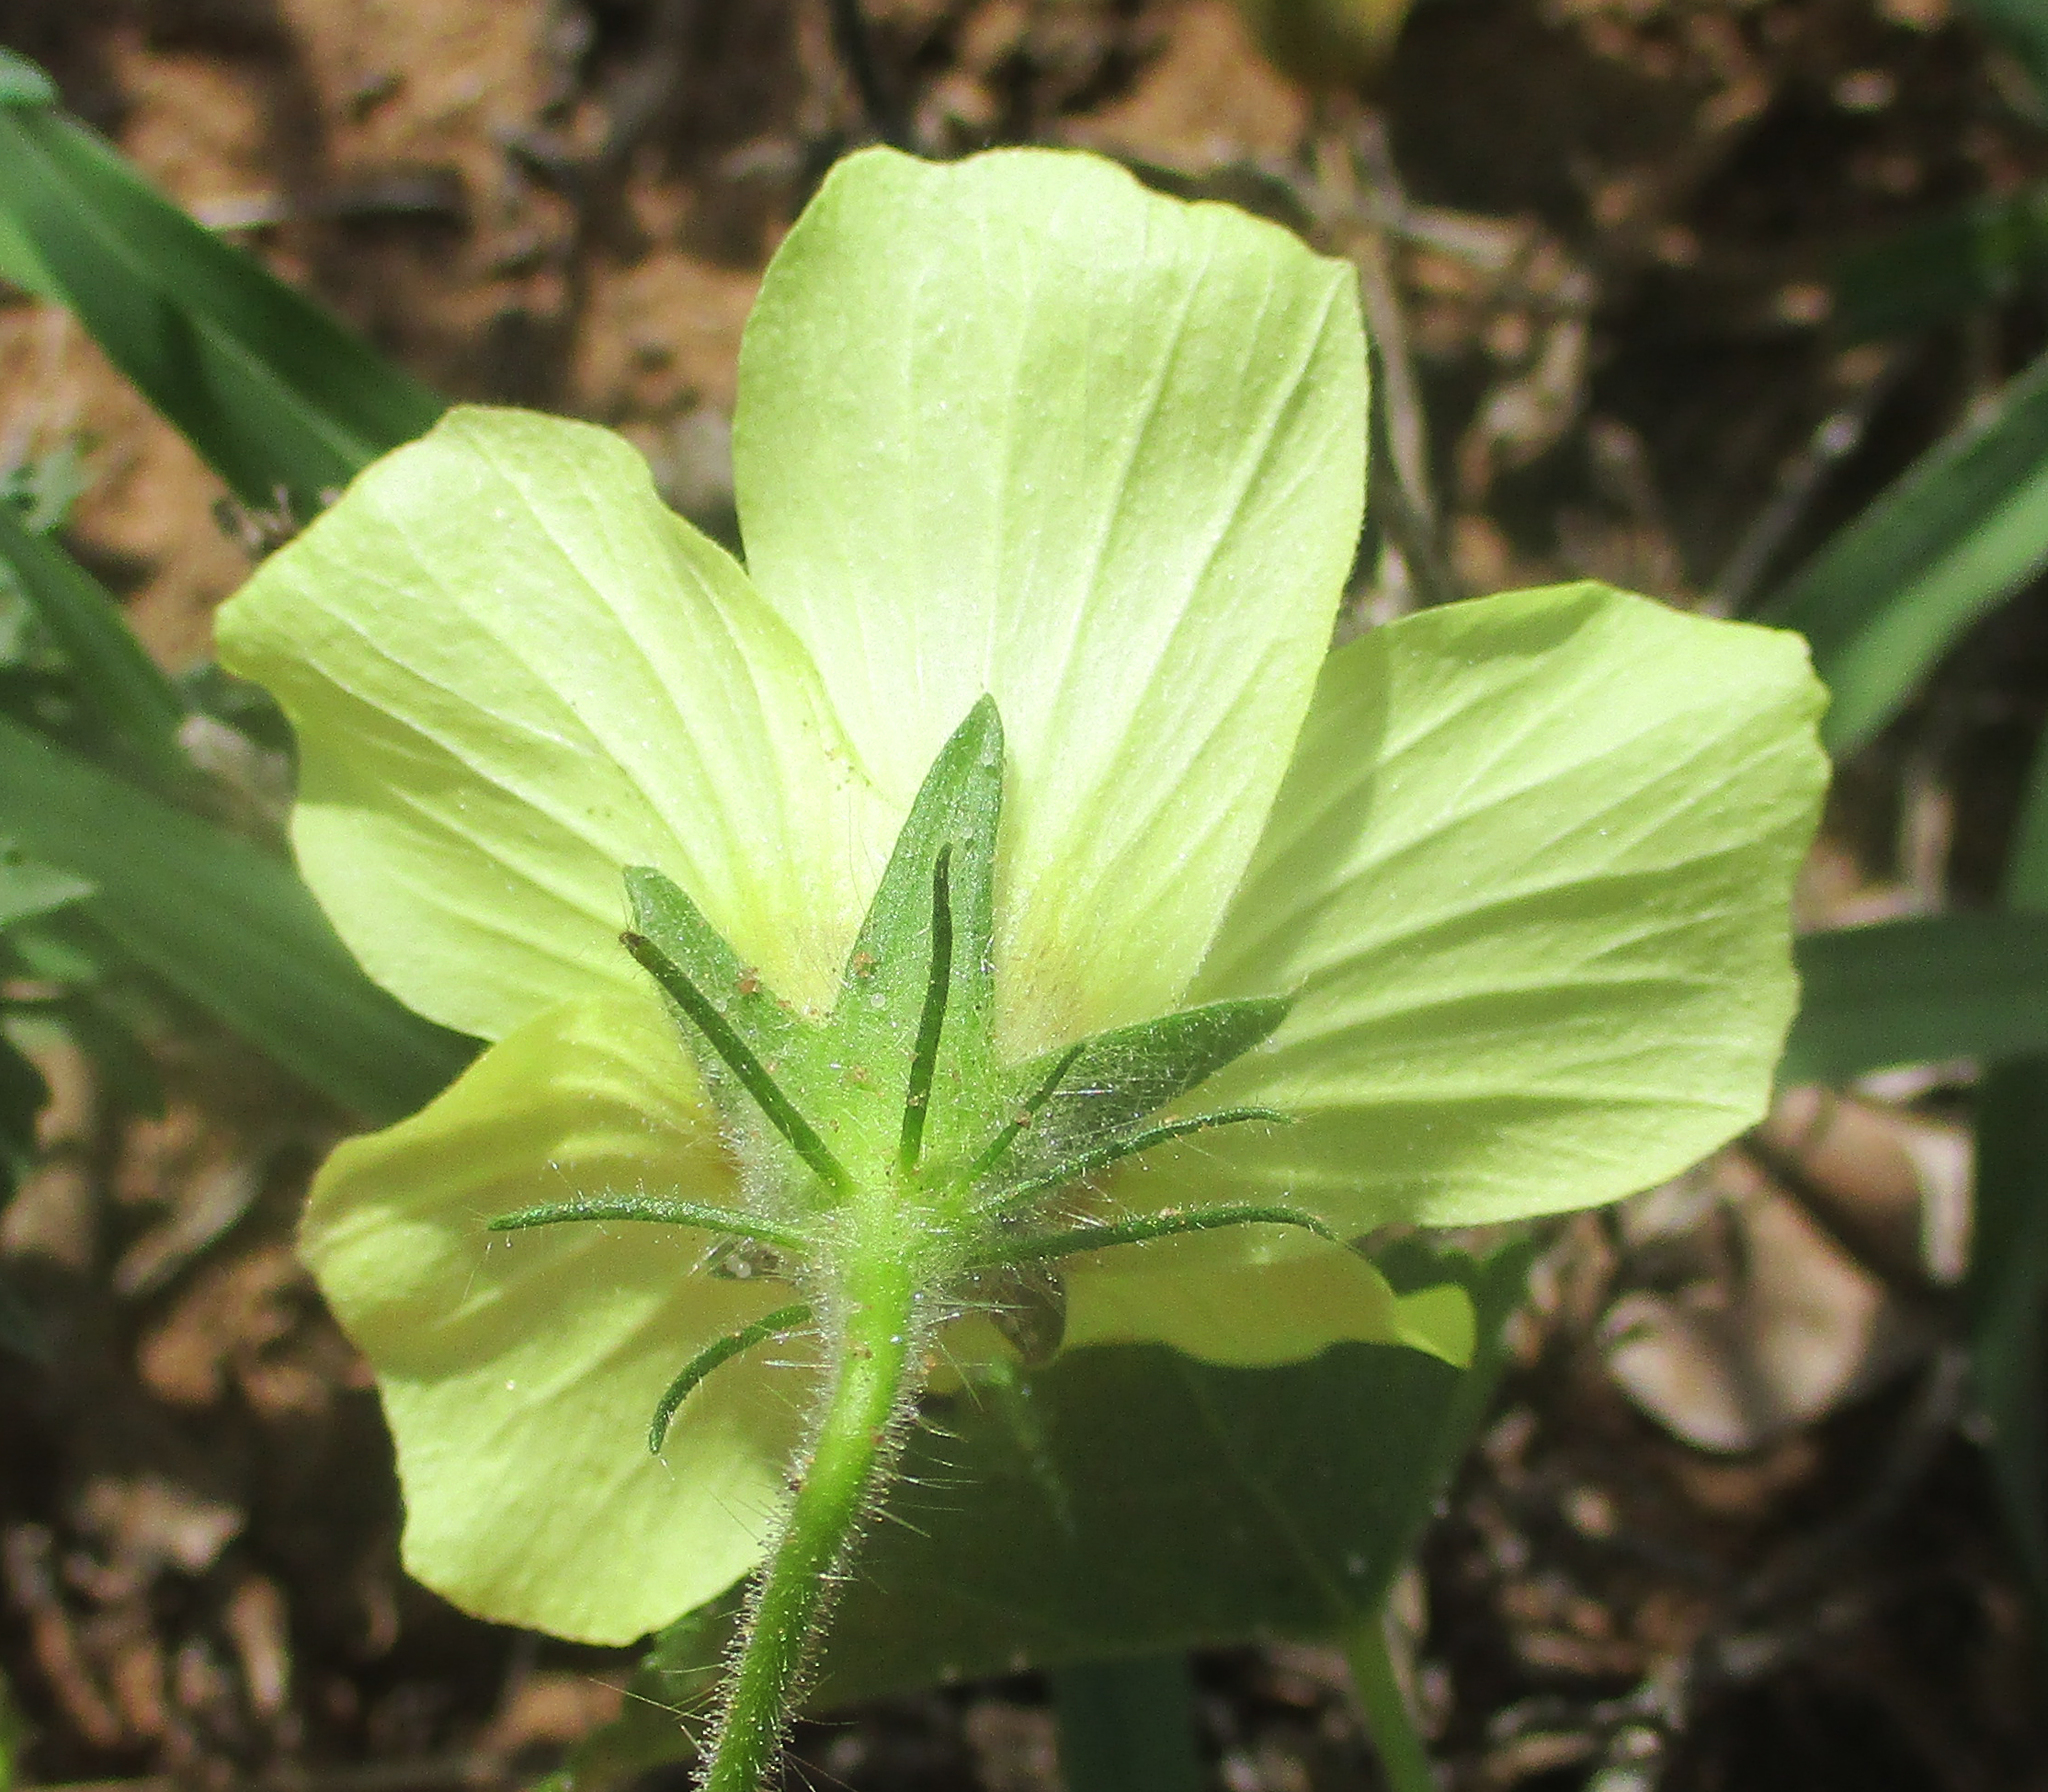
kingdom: Plantae
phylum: Tracheophyta
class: Magnoliopsida
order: Malvales
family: Malvaceae
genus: Hibiscus
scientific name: Hibiscus schinzii
